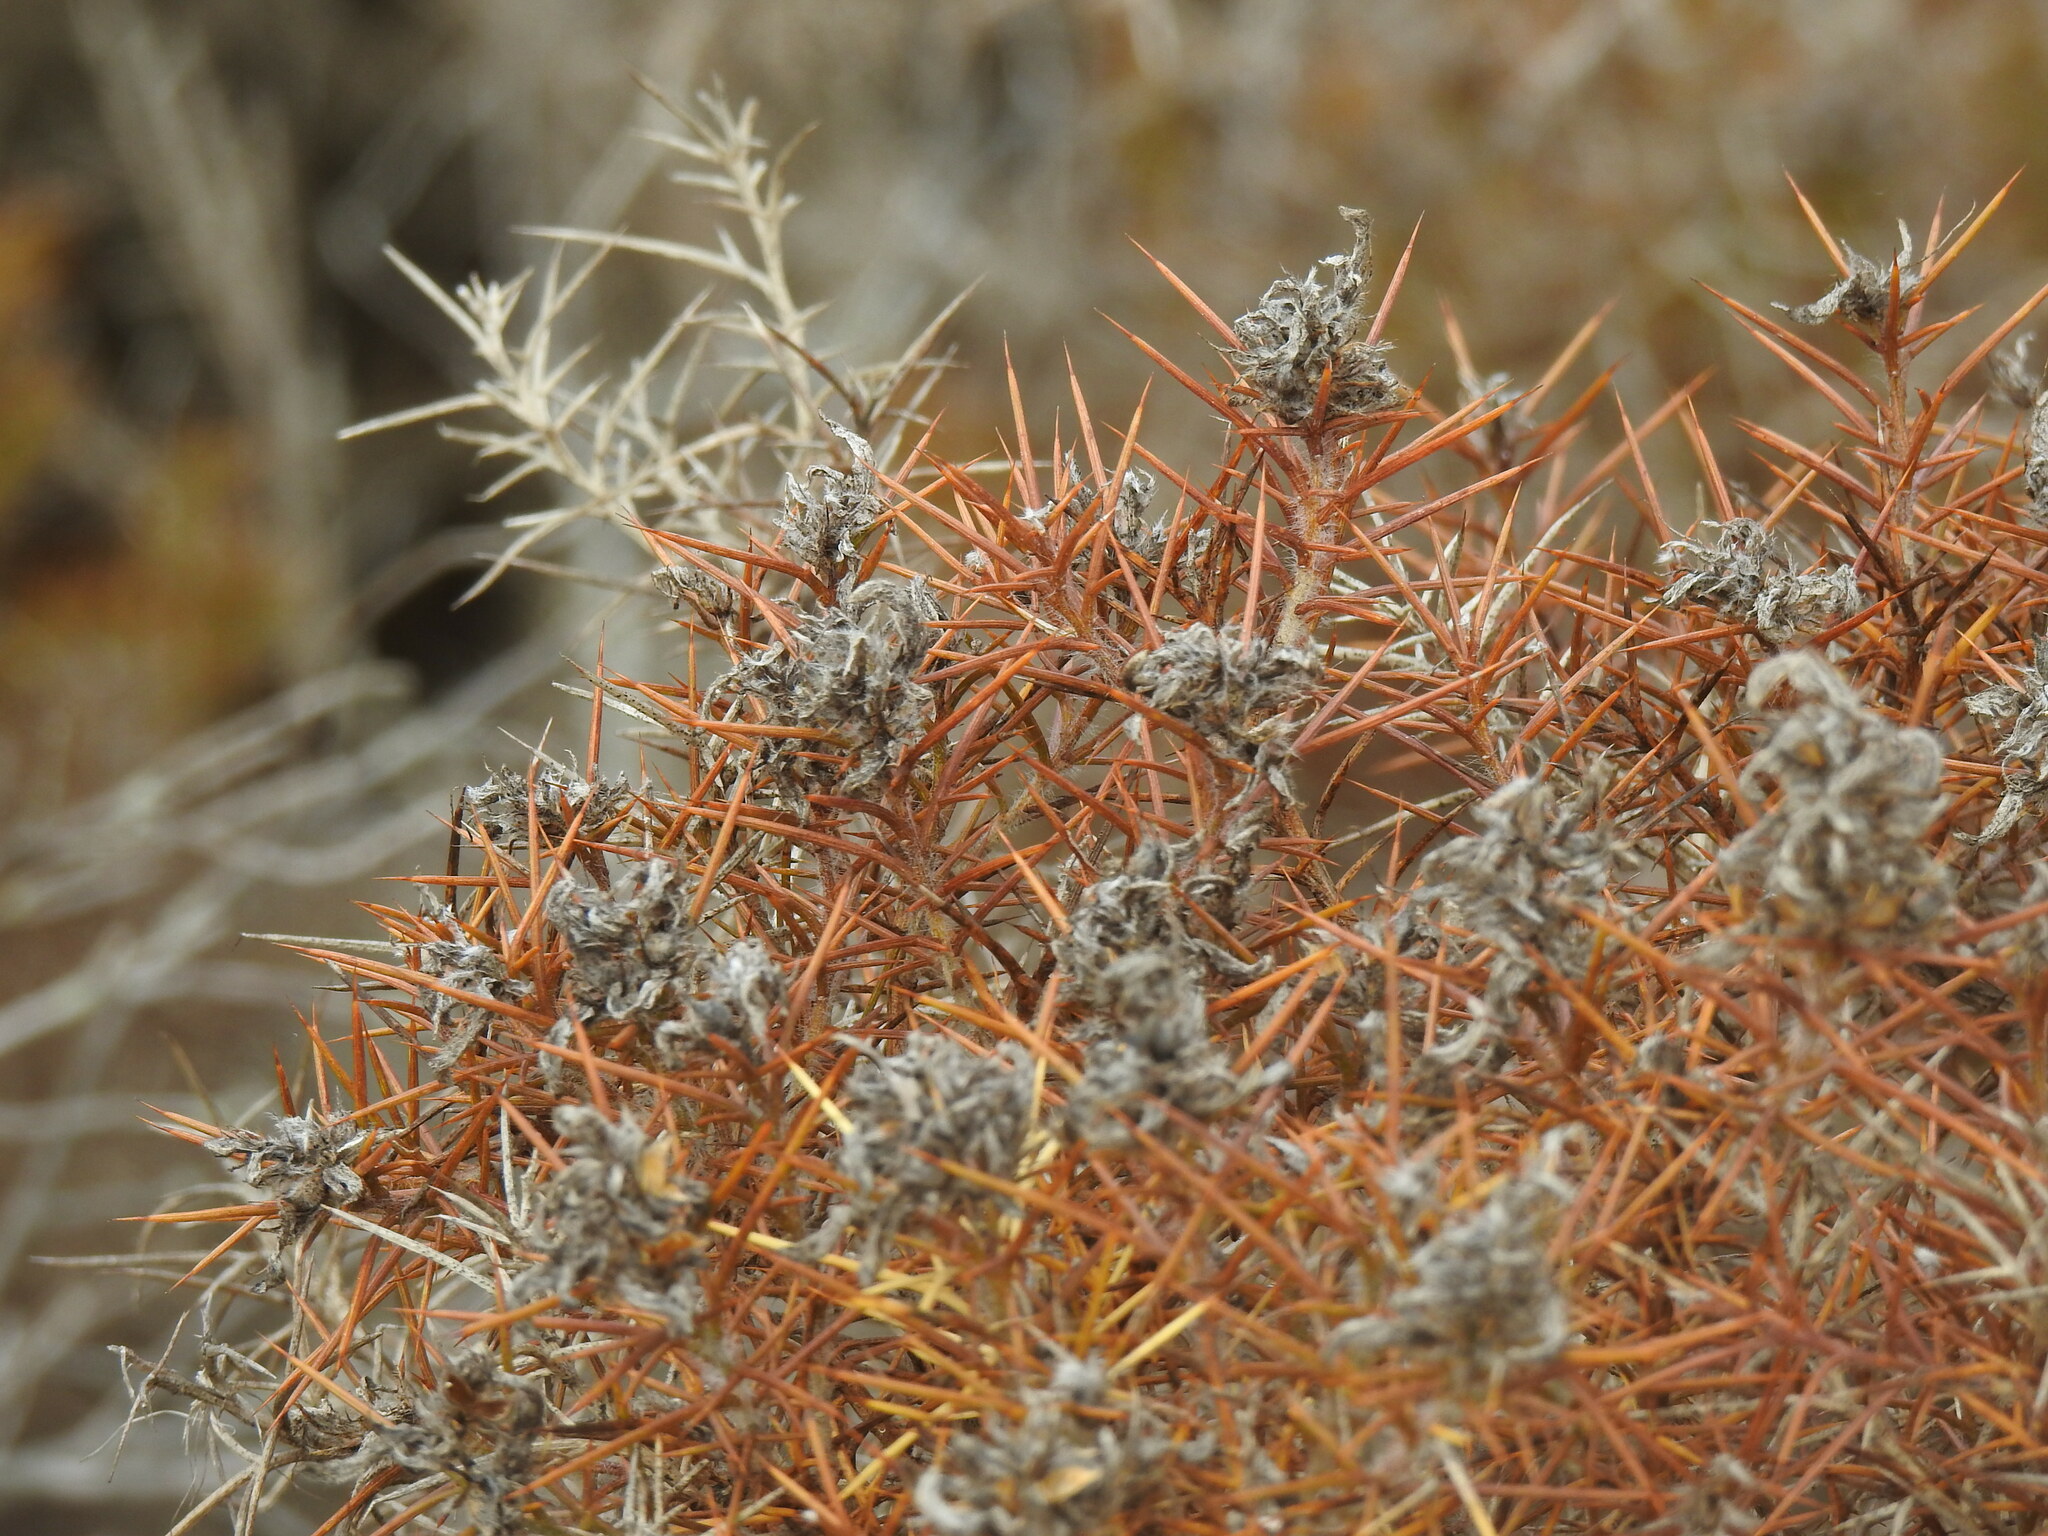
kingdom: Plantae
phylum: Tracheophyta
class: Magnoliopsida
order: Fabales
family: Fabaceae
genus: Genista
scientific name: Genista hirsuta
